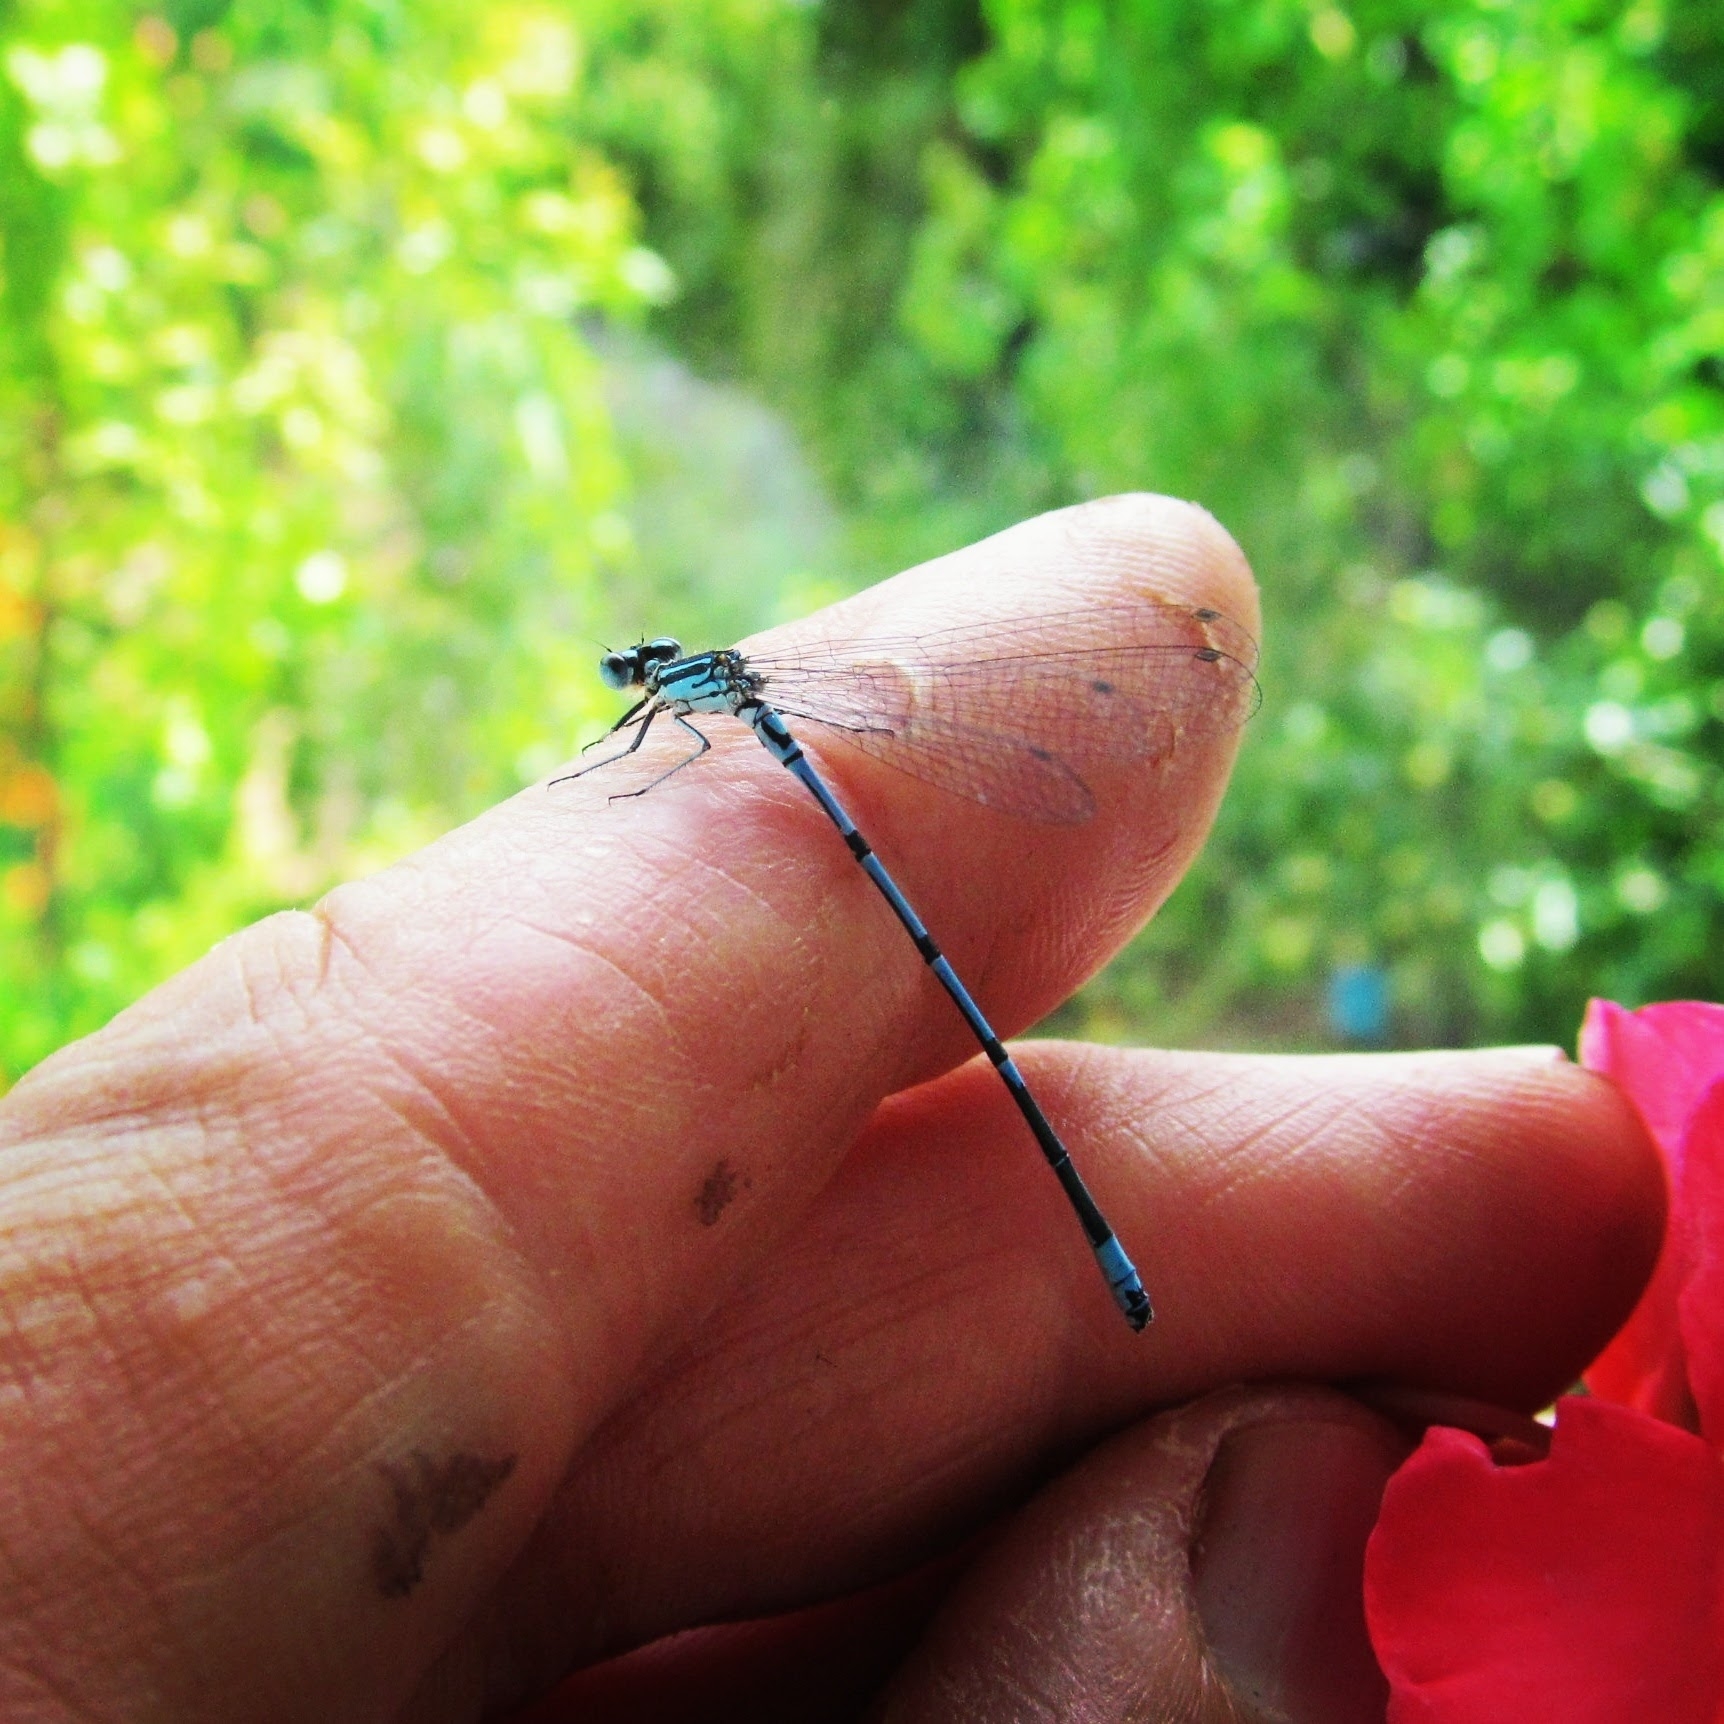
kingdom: Animalia
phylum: Arthropoda
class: Insecta
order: Odonata
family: Coenagrionidae
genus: Coenagrion
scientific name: Coenagrion puella
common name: Azure damselfly
